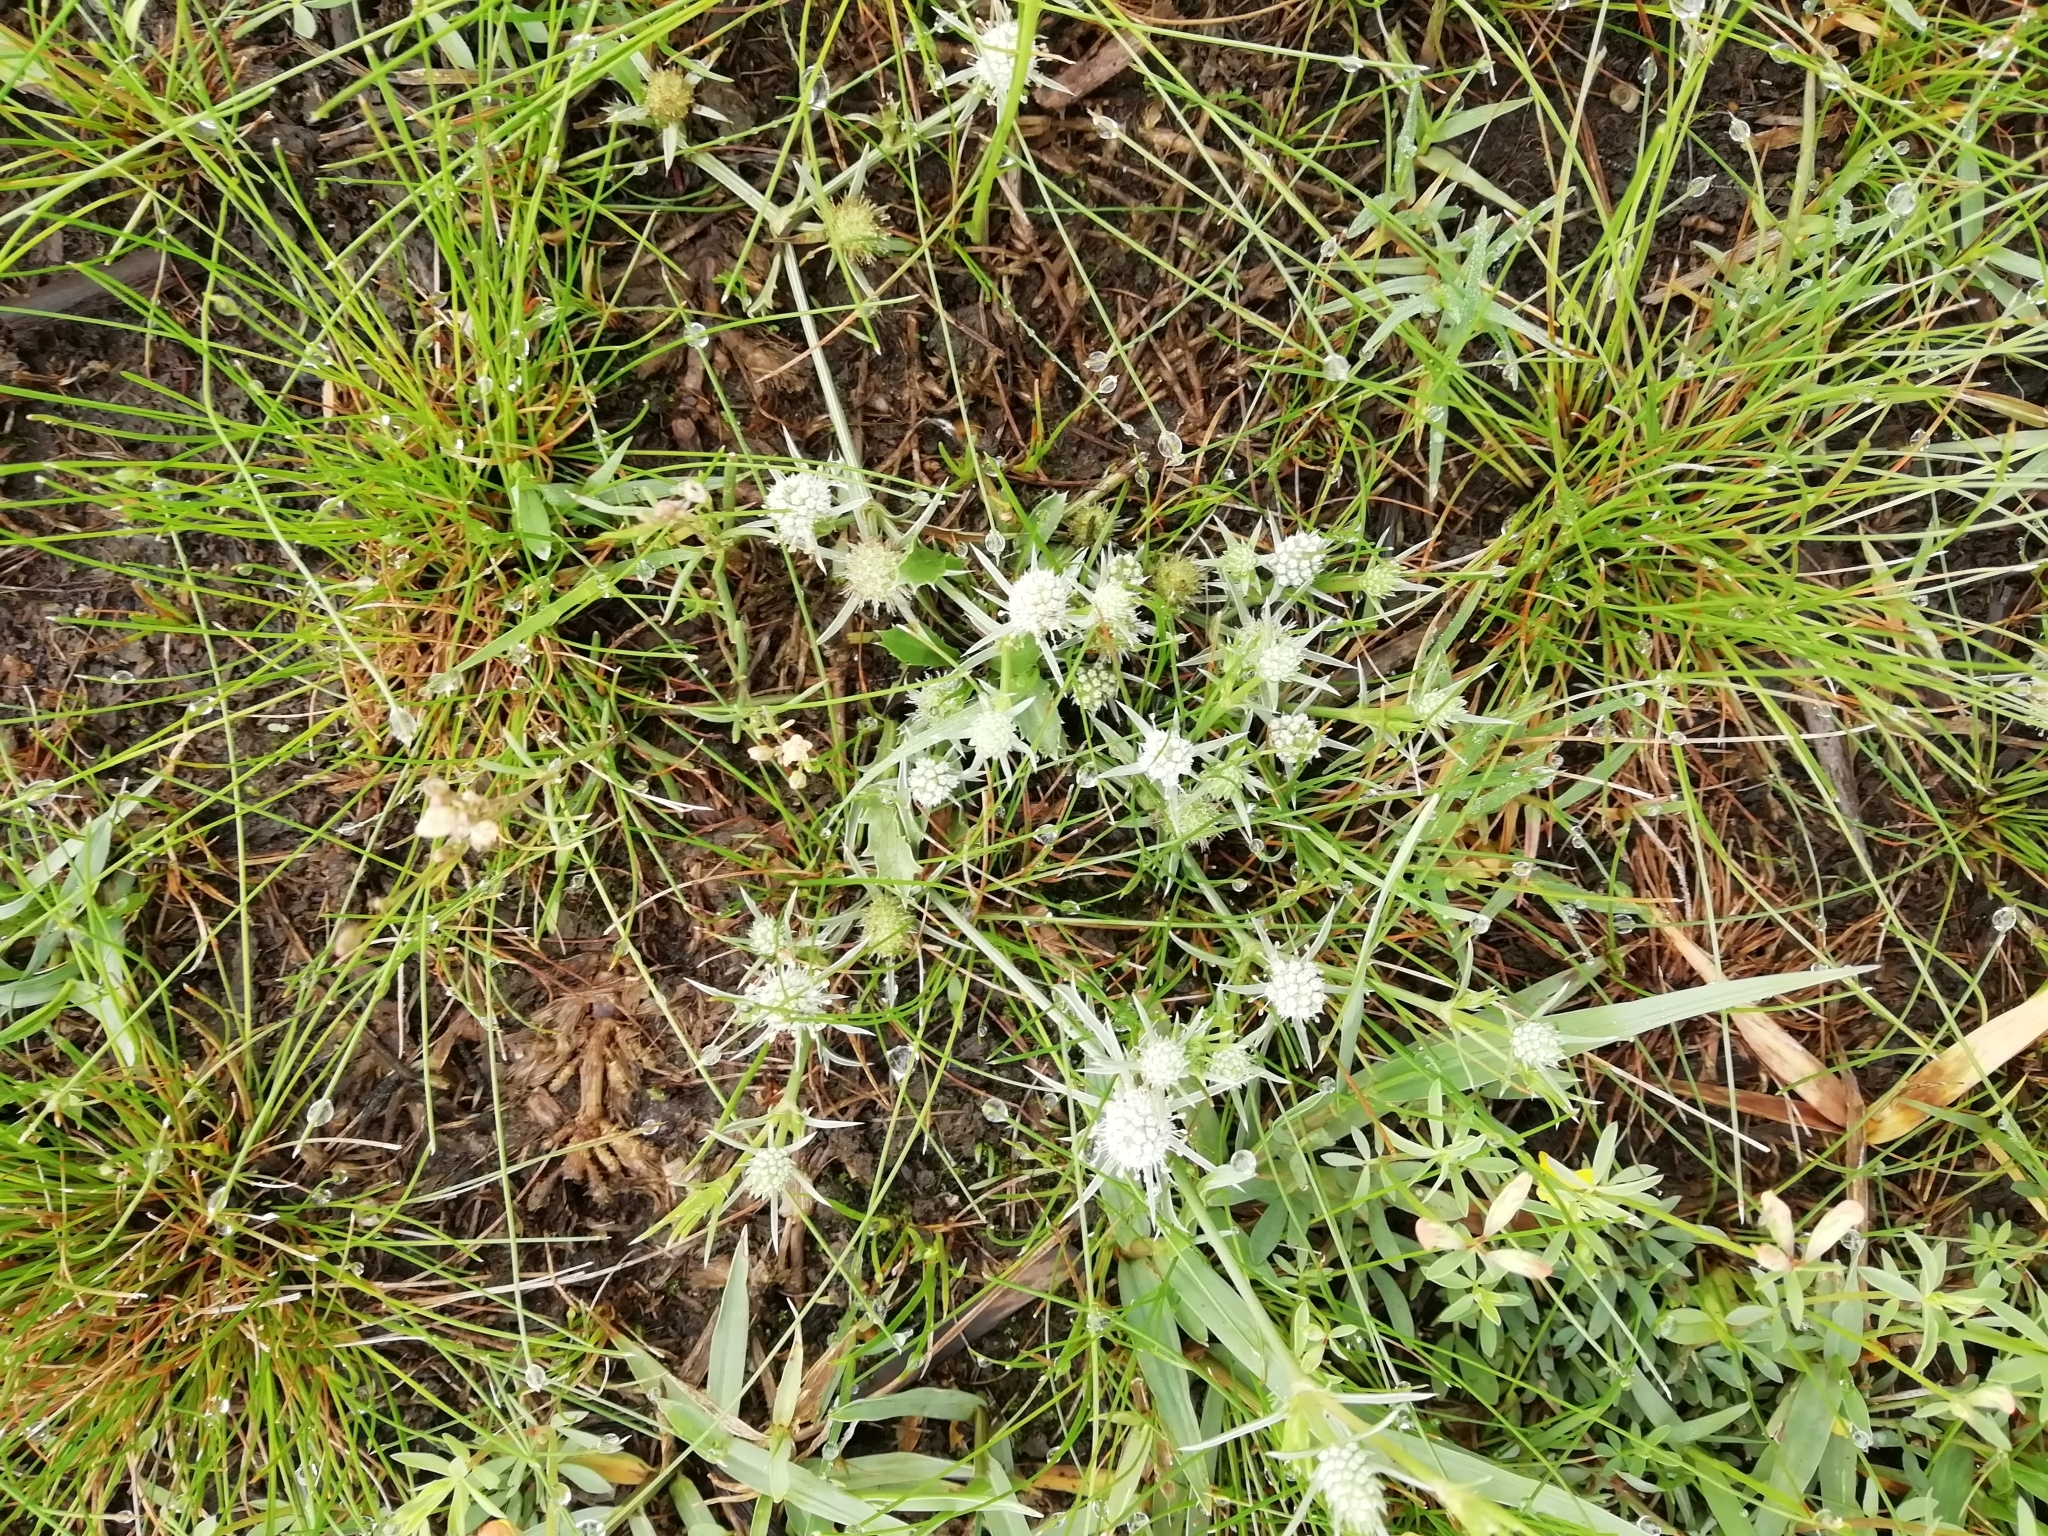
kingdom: Plantae
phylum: Tracheophyta
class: Magnoliopsida
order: Apiales
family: Apiaceae
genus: Eryngium
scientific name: Eryngium echinatum
